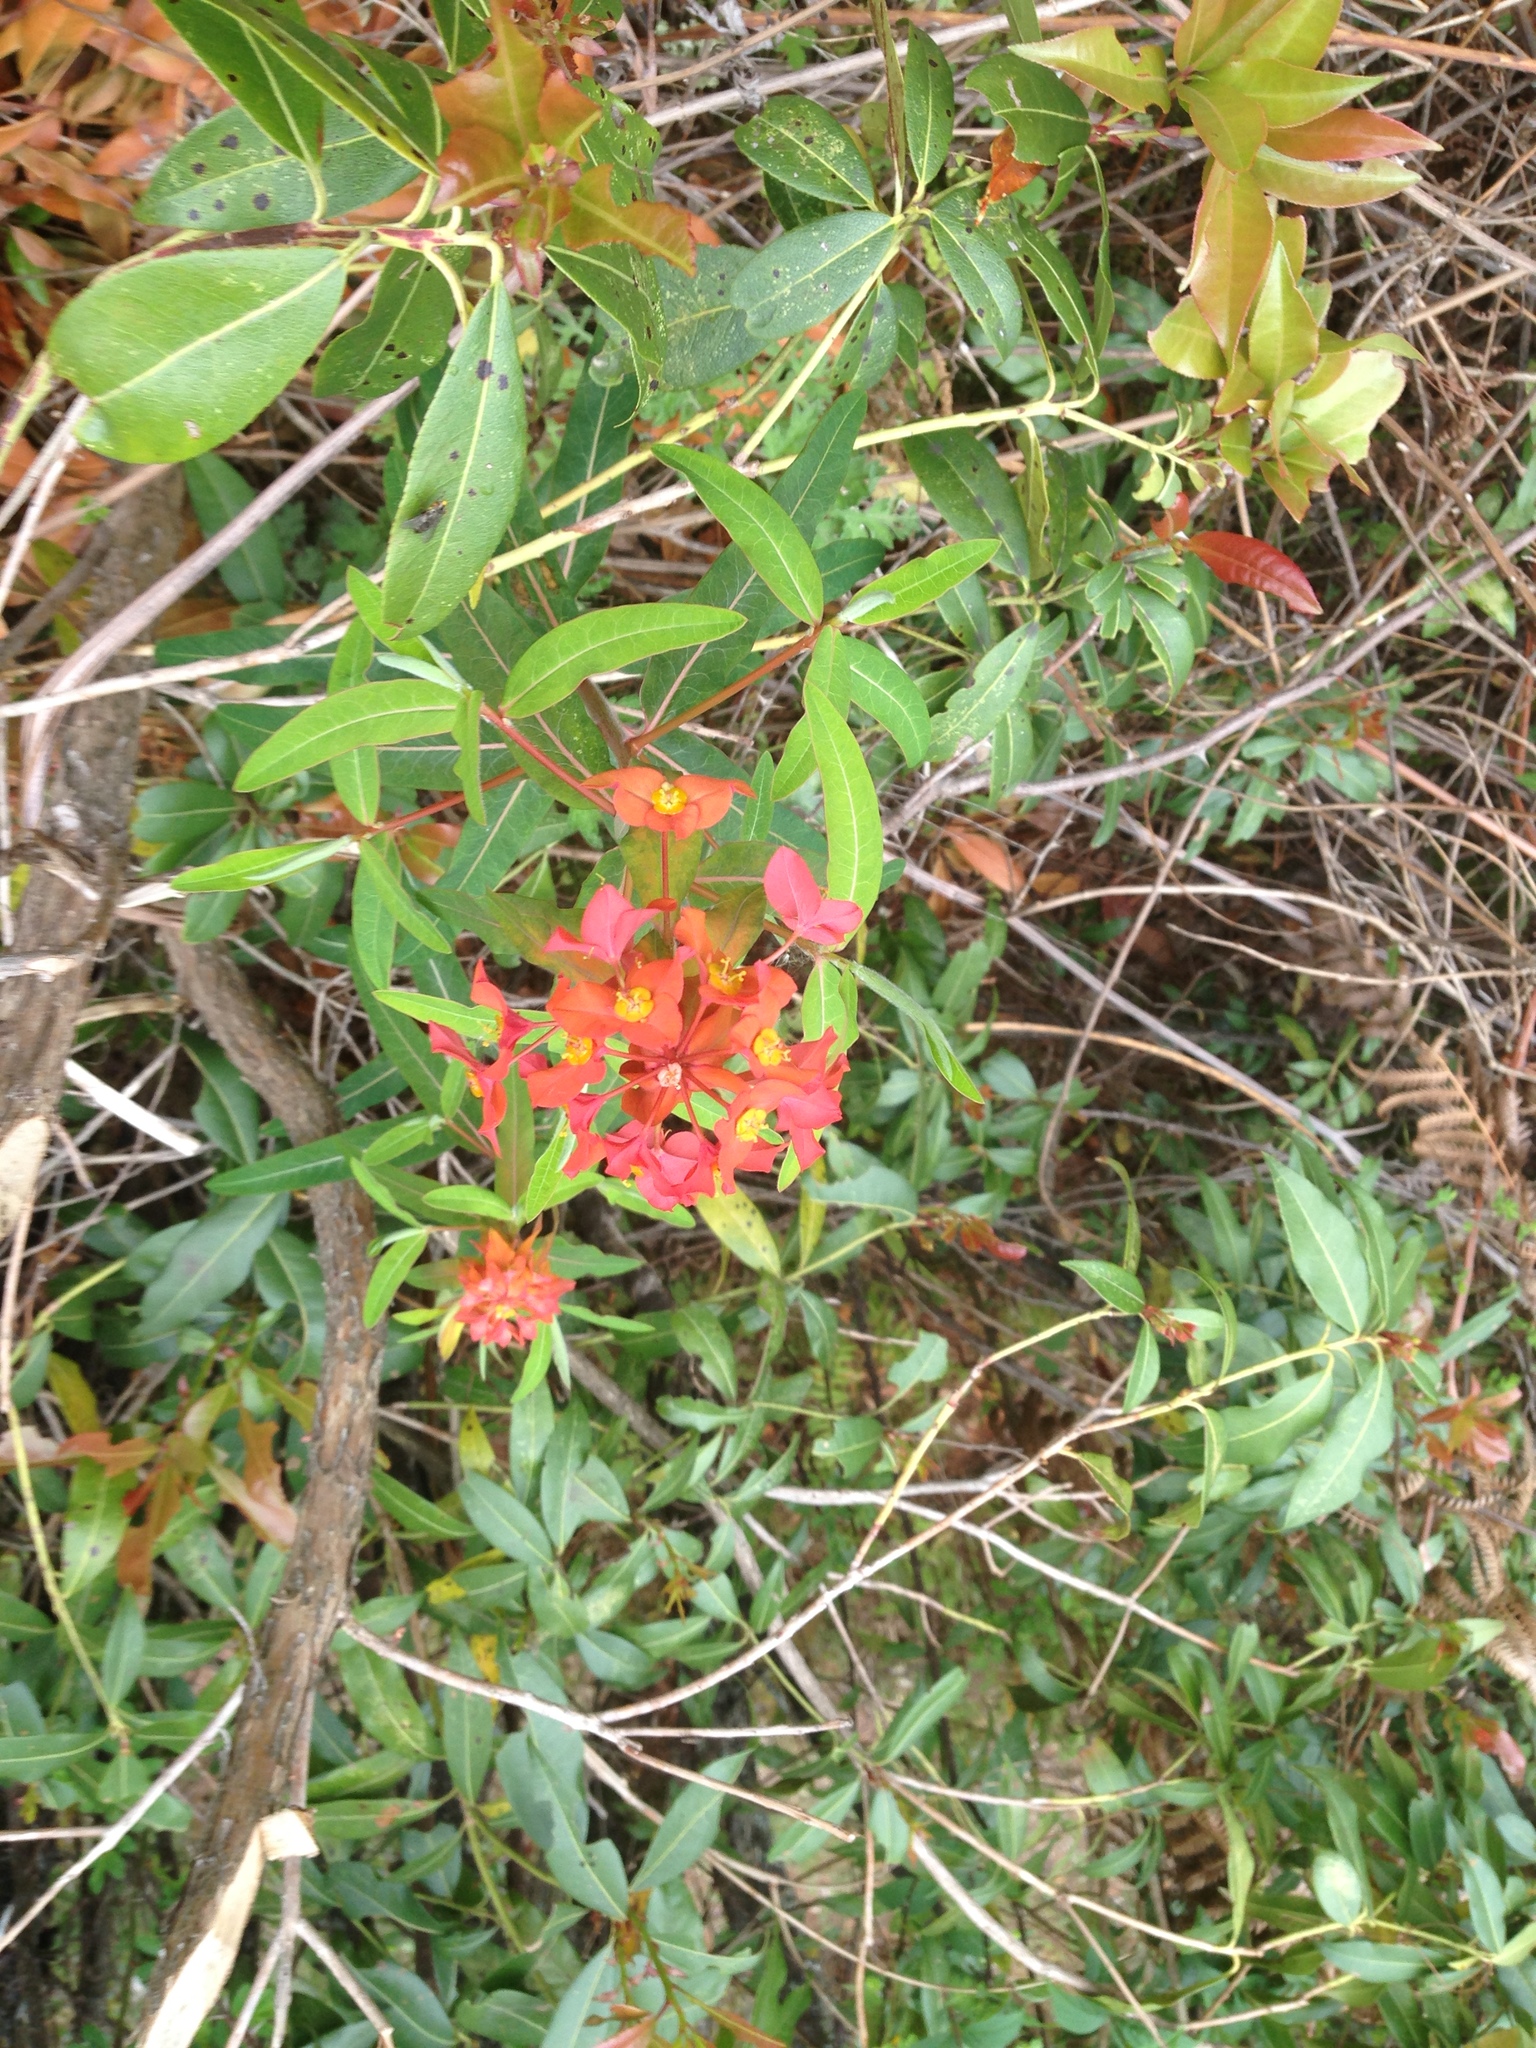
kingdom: Plantae
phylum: Tracheophyta
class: Magnoliopsida
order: Malpighiales
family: Euphorbiaceae
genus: Euphorbia
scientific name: Euphorbia griffithii
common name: Griffith's spurge
